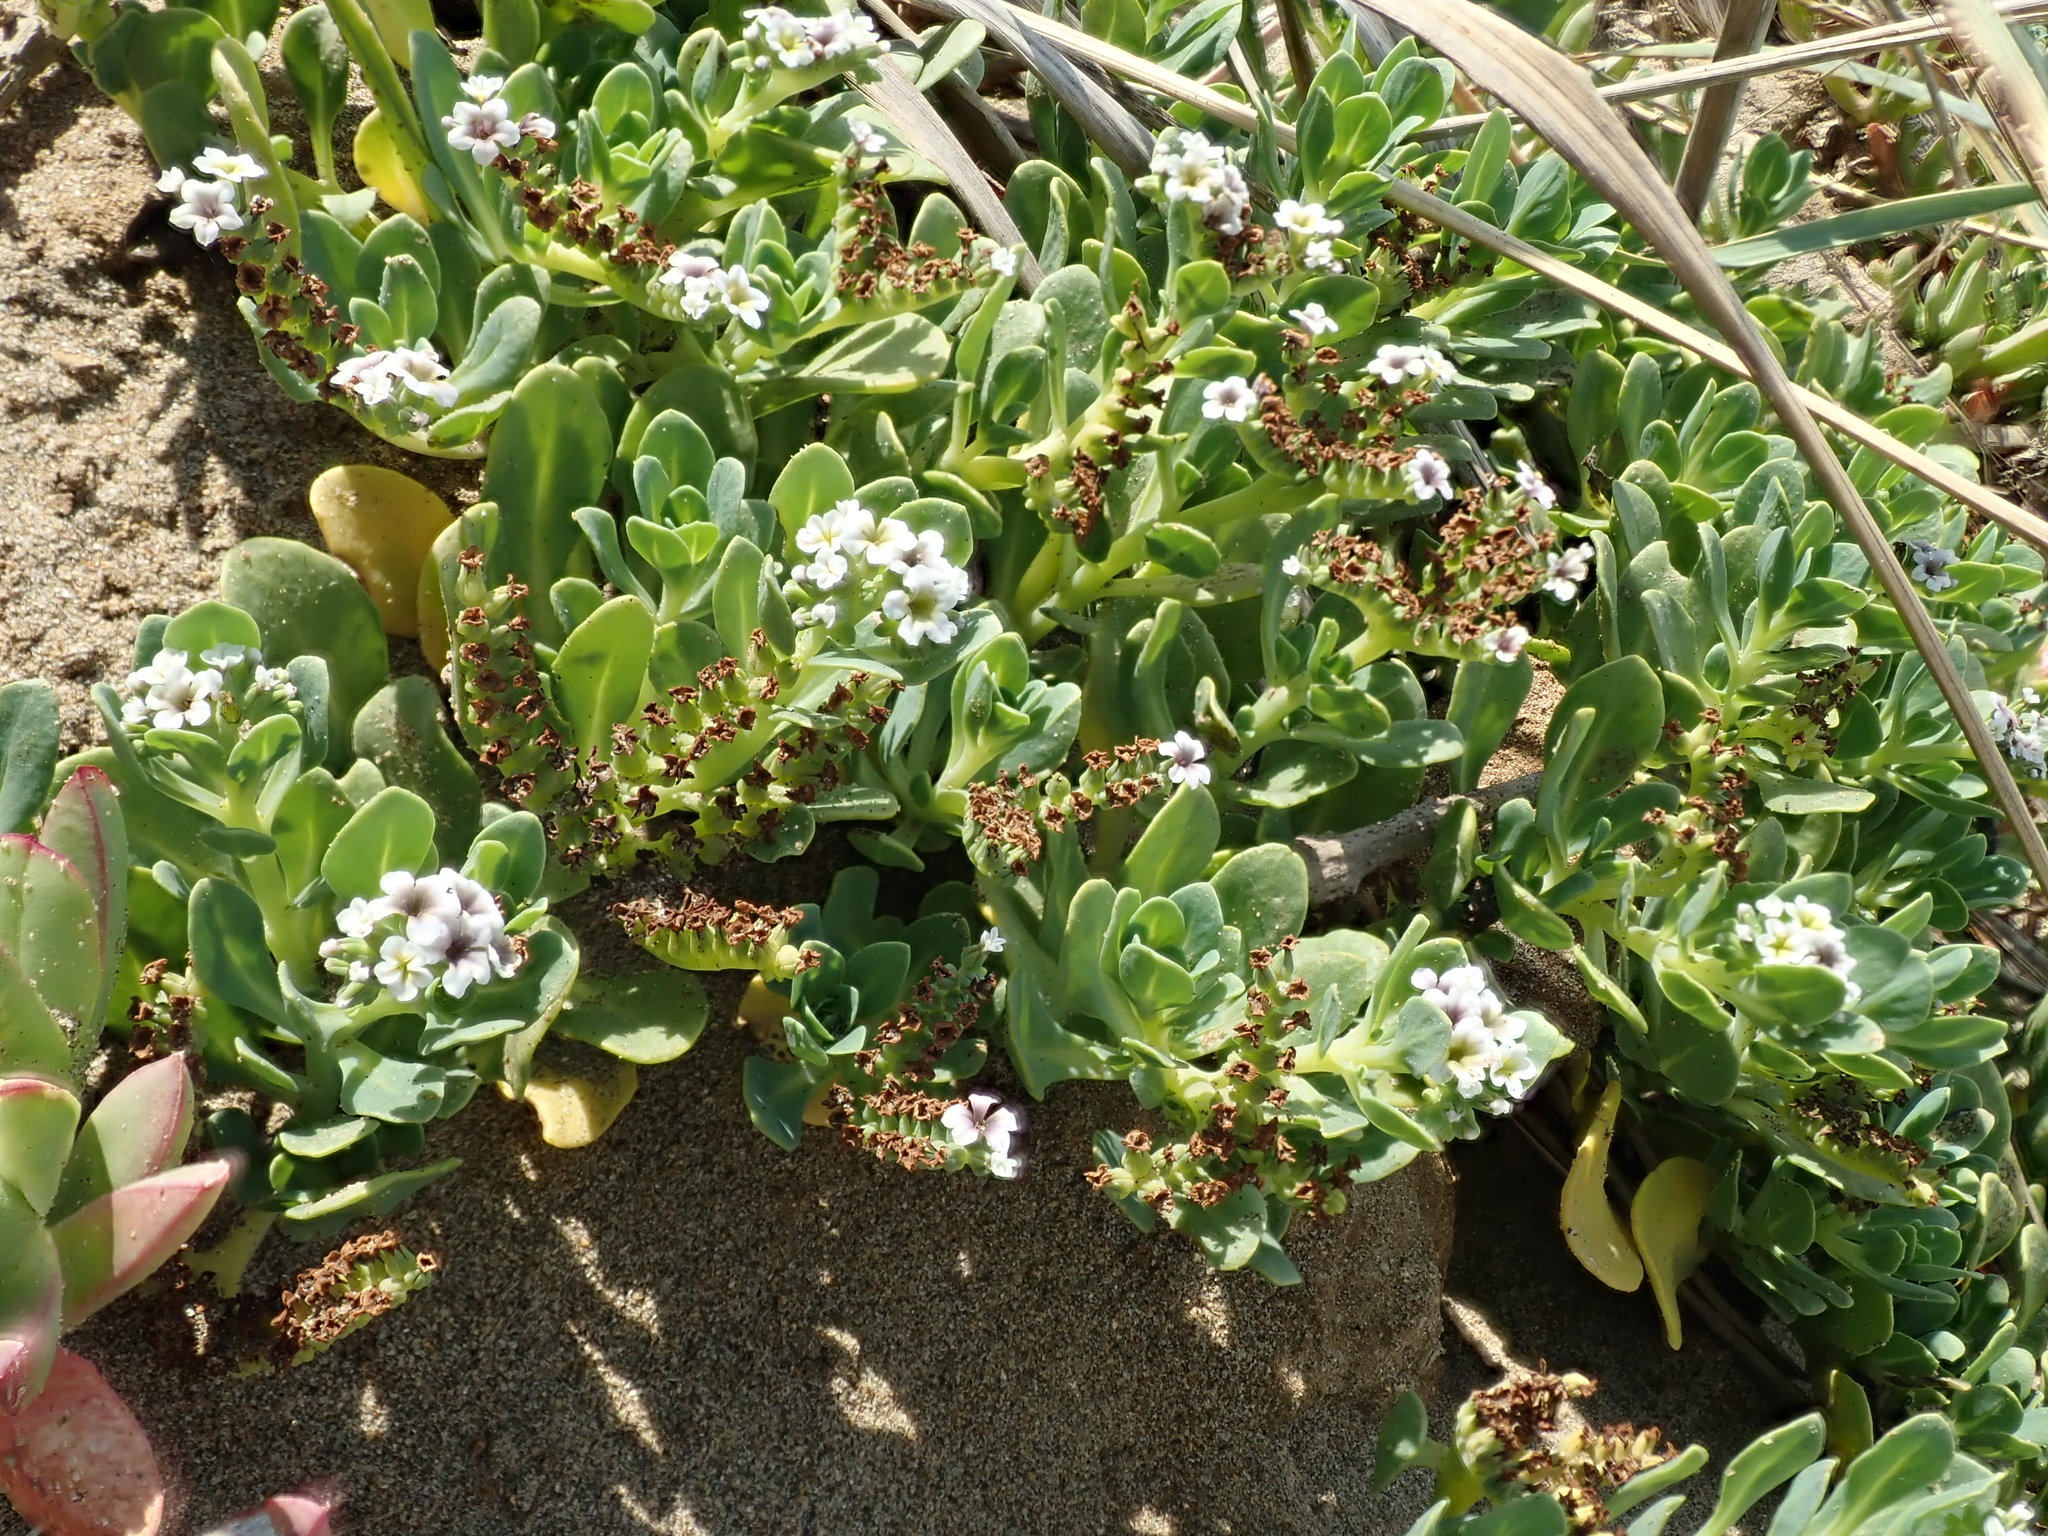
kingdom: Plantae
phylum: Tracheophyta
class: Magnoliopsida
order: Boraginales
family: Heliotropiaceae
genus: Heliotropium
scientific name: Heliotropium curassavicum
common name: Seaside heliotrope
